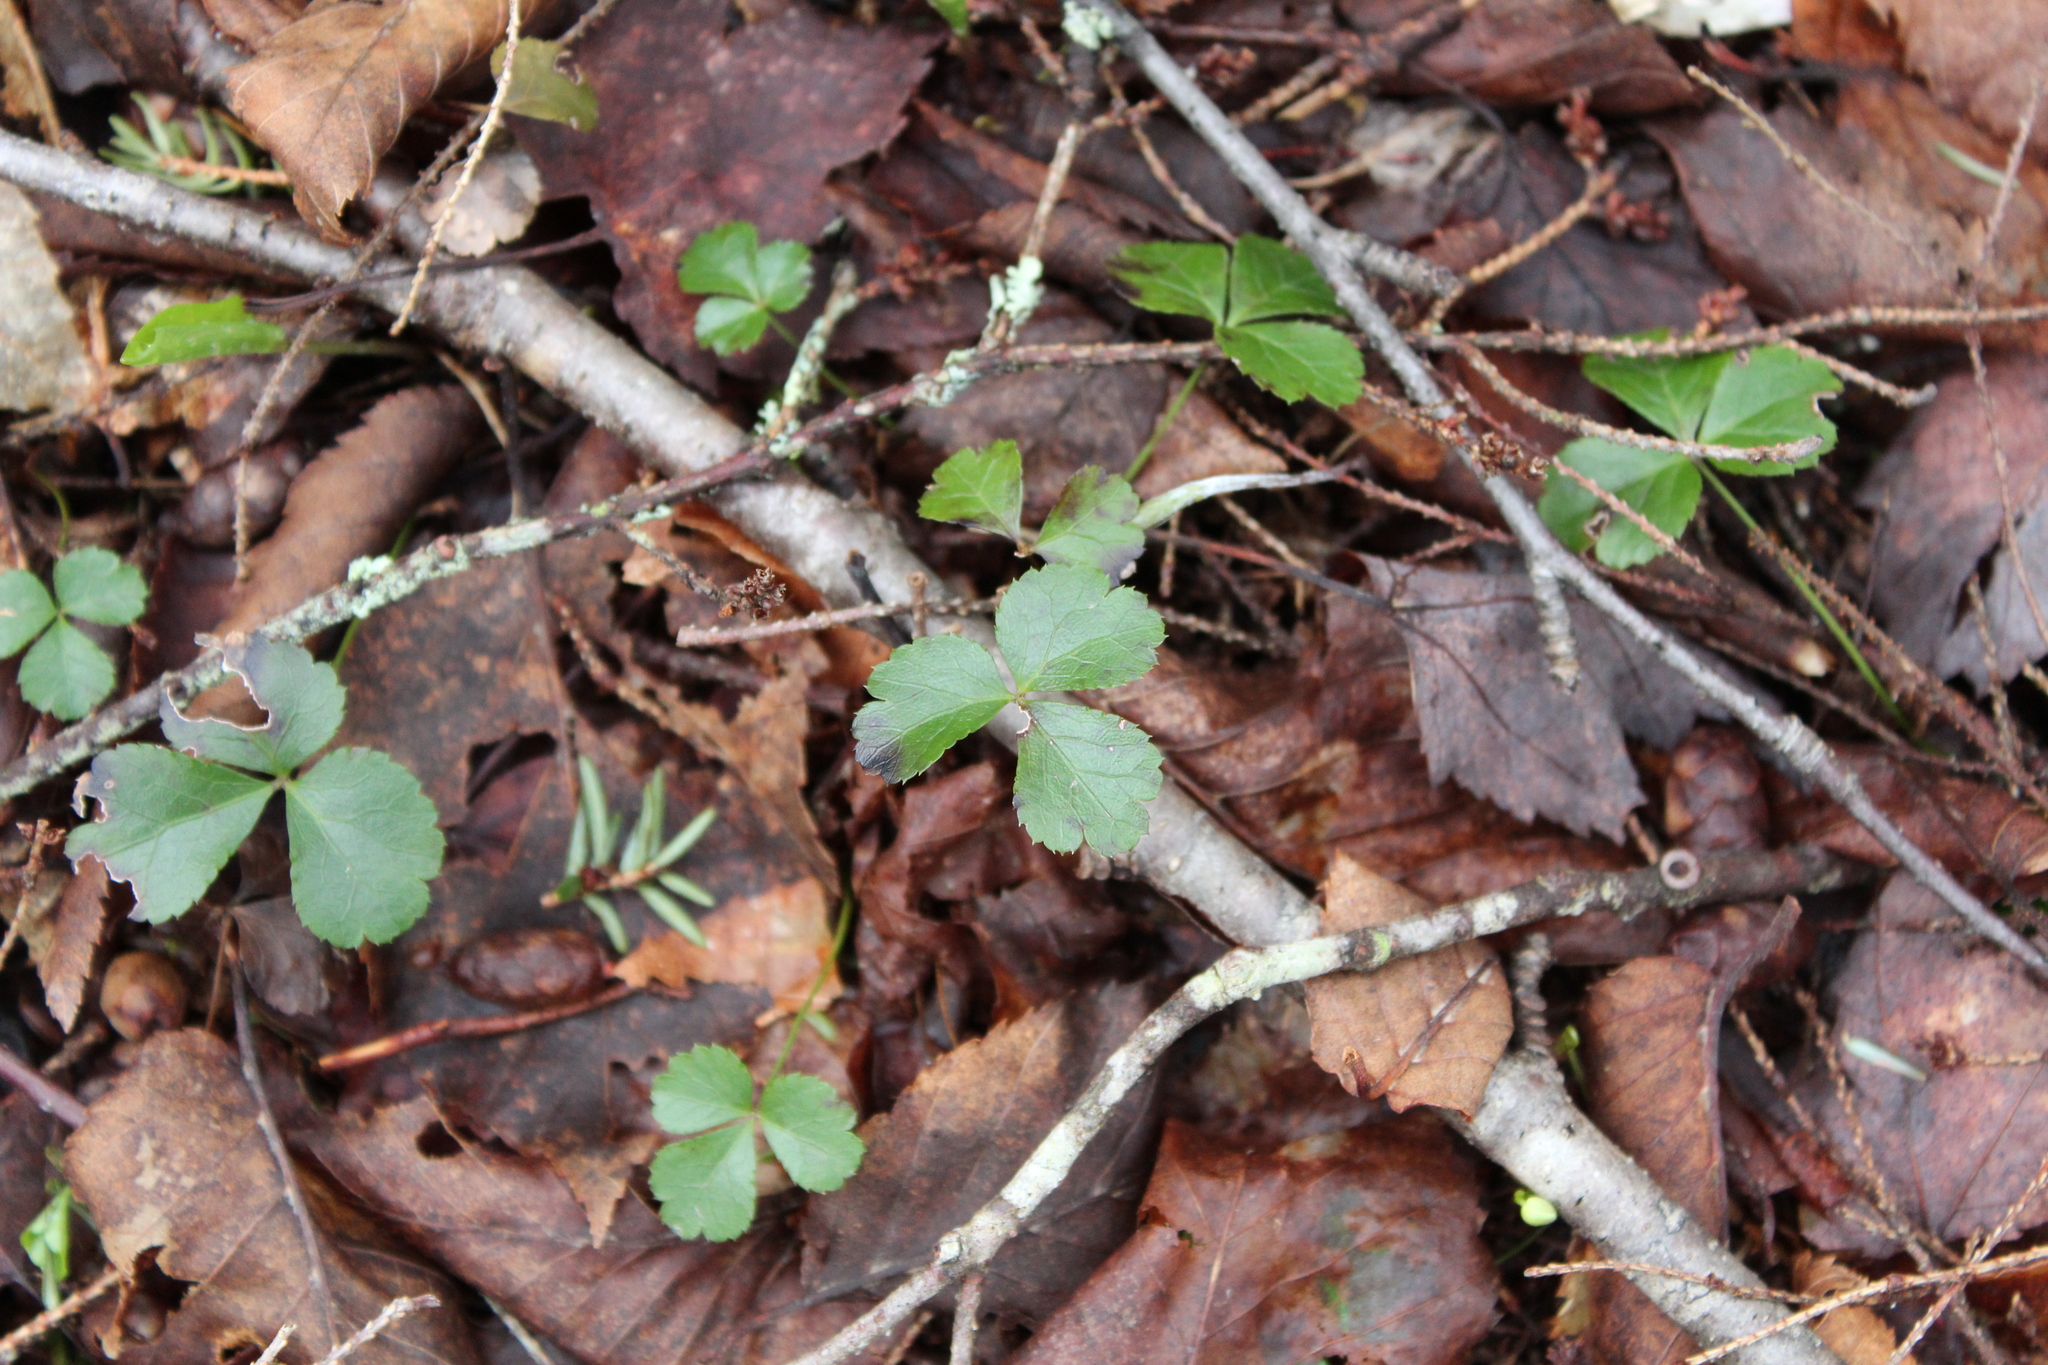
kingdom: Plantae
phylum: Tracheophyta
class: Magnoliopsida
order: Ranunculales
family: Ranunculaceae
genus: Coptis
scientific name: Coptis trifolia
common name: Canker-root
